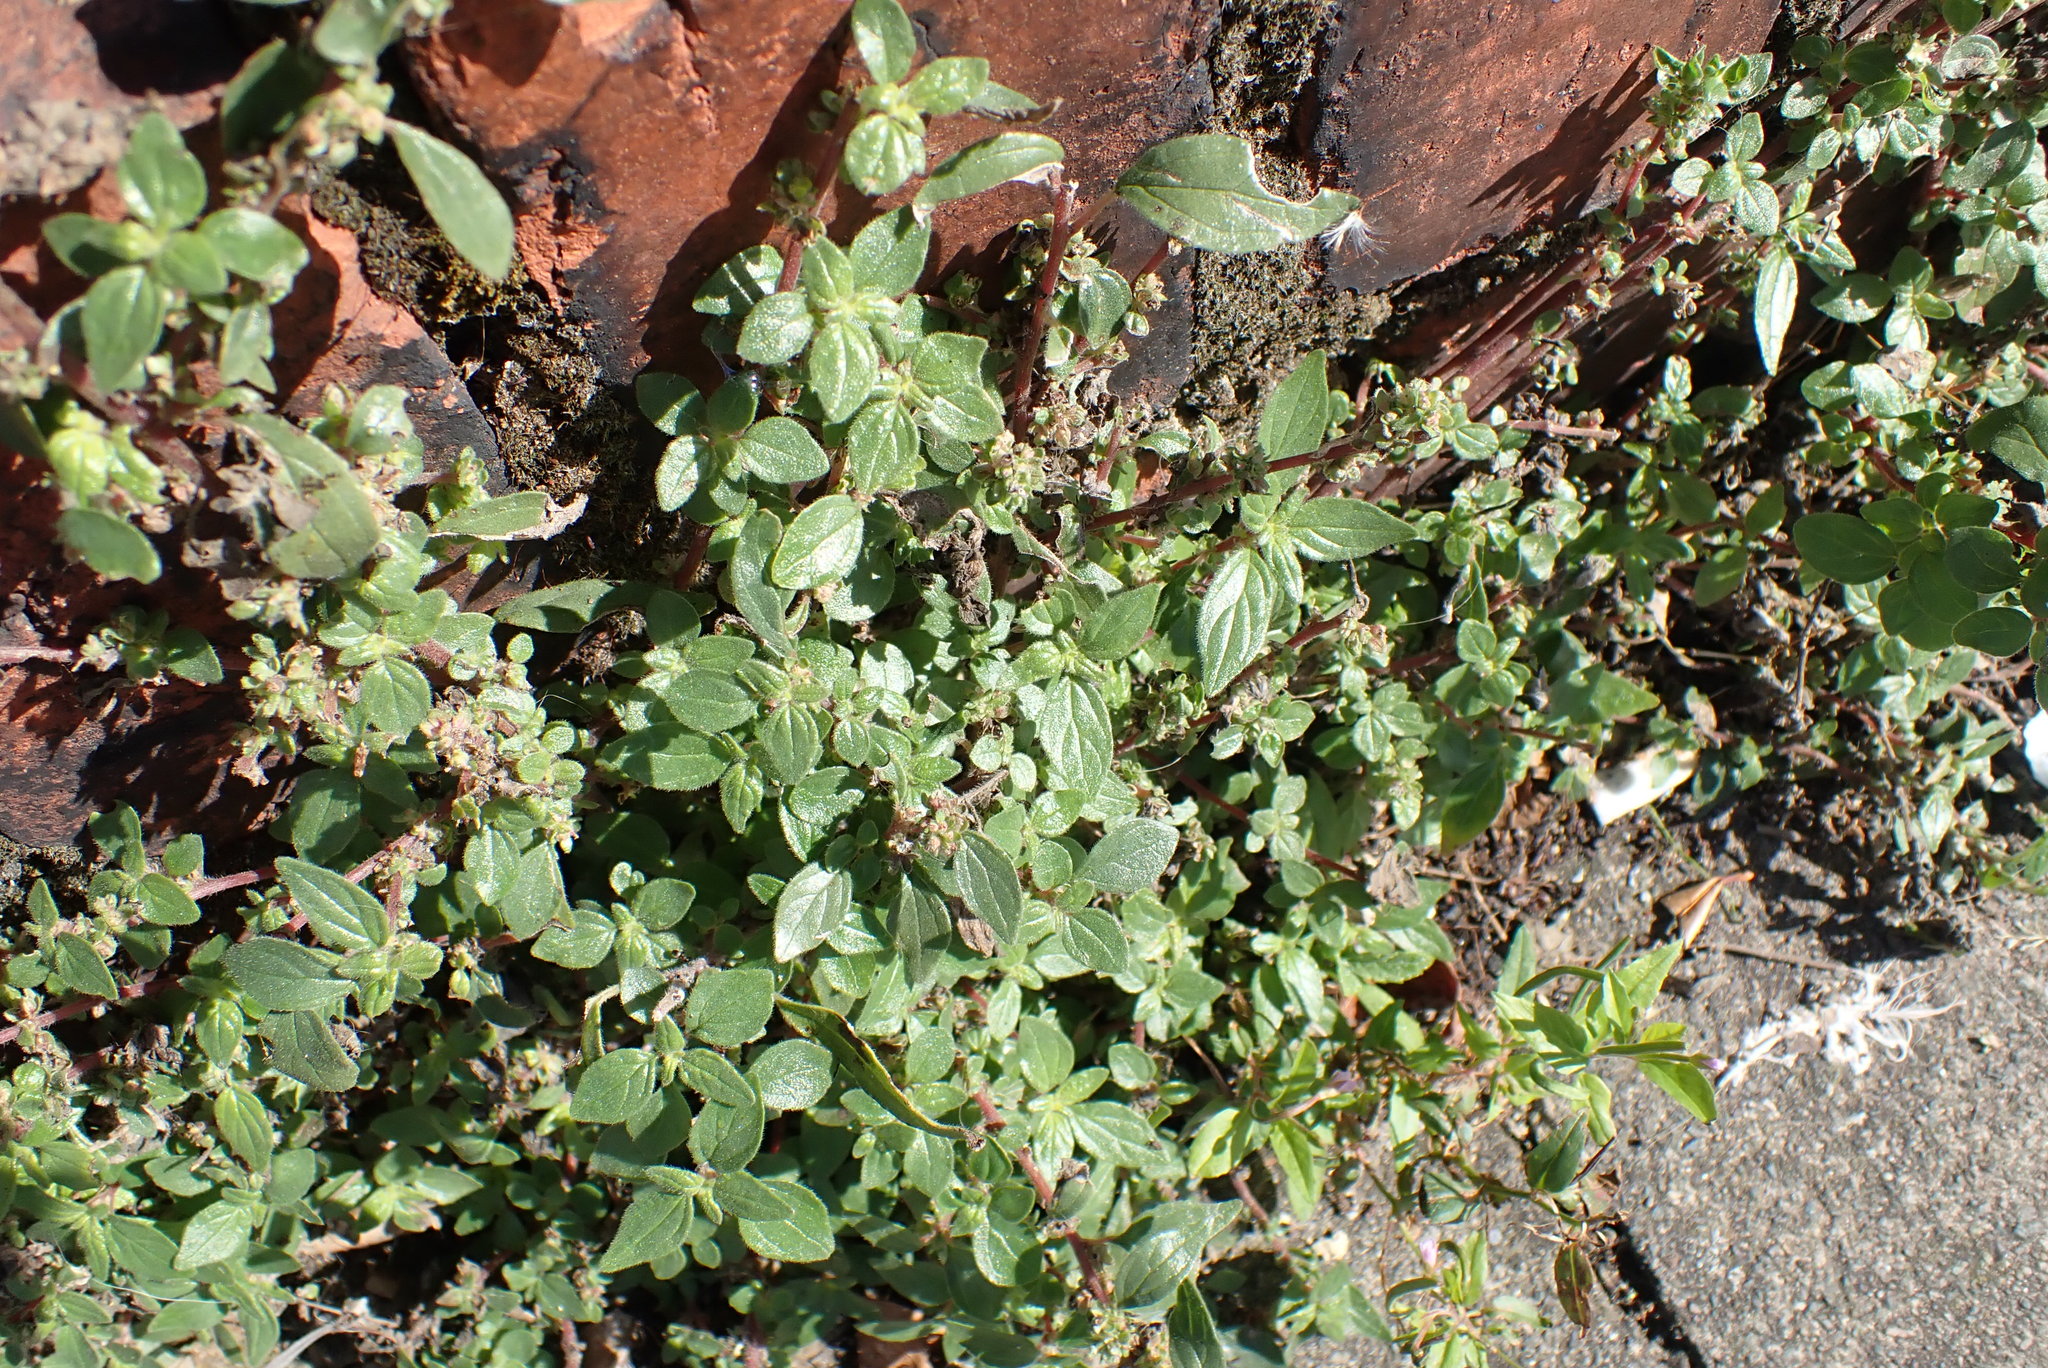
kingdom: Plantae
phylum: Tracheophyta
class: Magnoliopsida
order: Rosales
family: Urticaceae
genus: Parietaria
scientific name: Parietaria judaica
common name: Pellitory-of-the-wall
